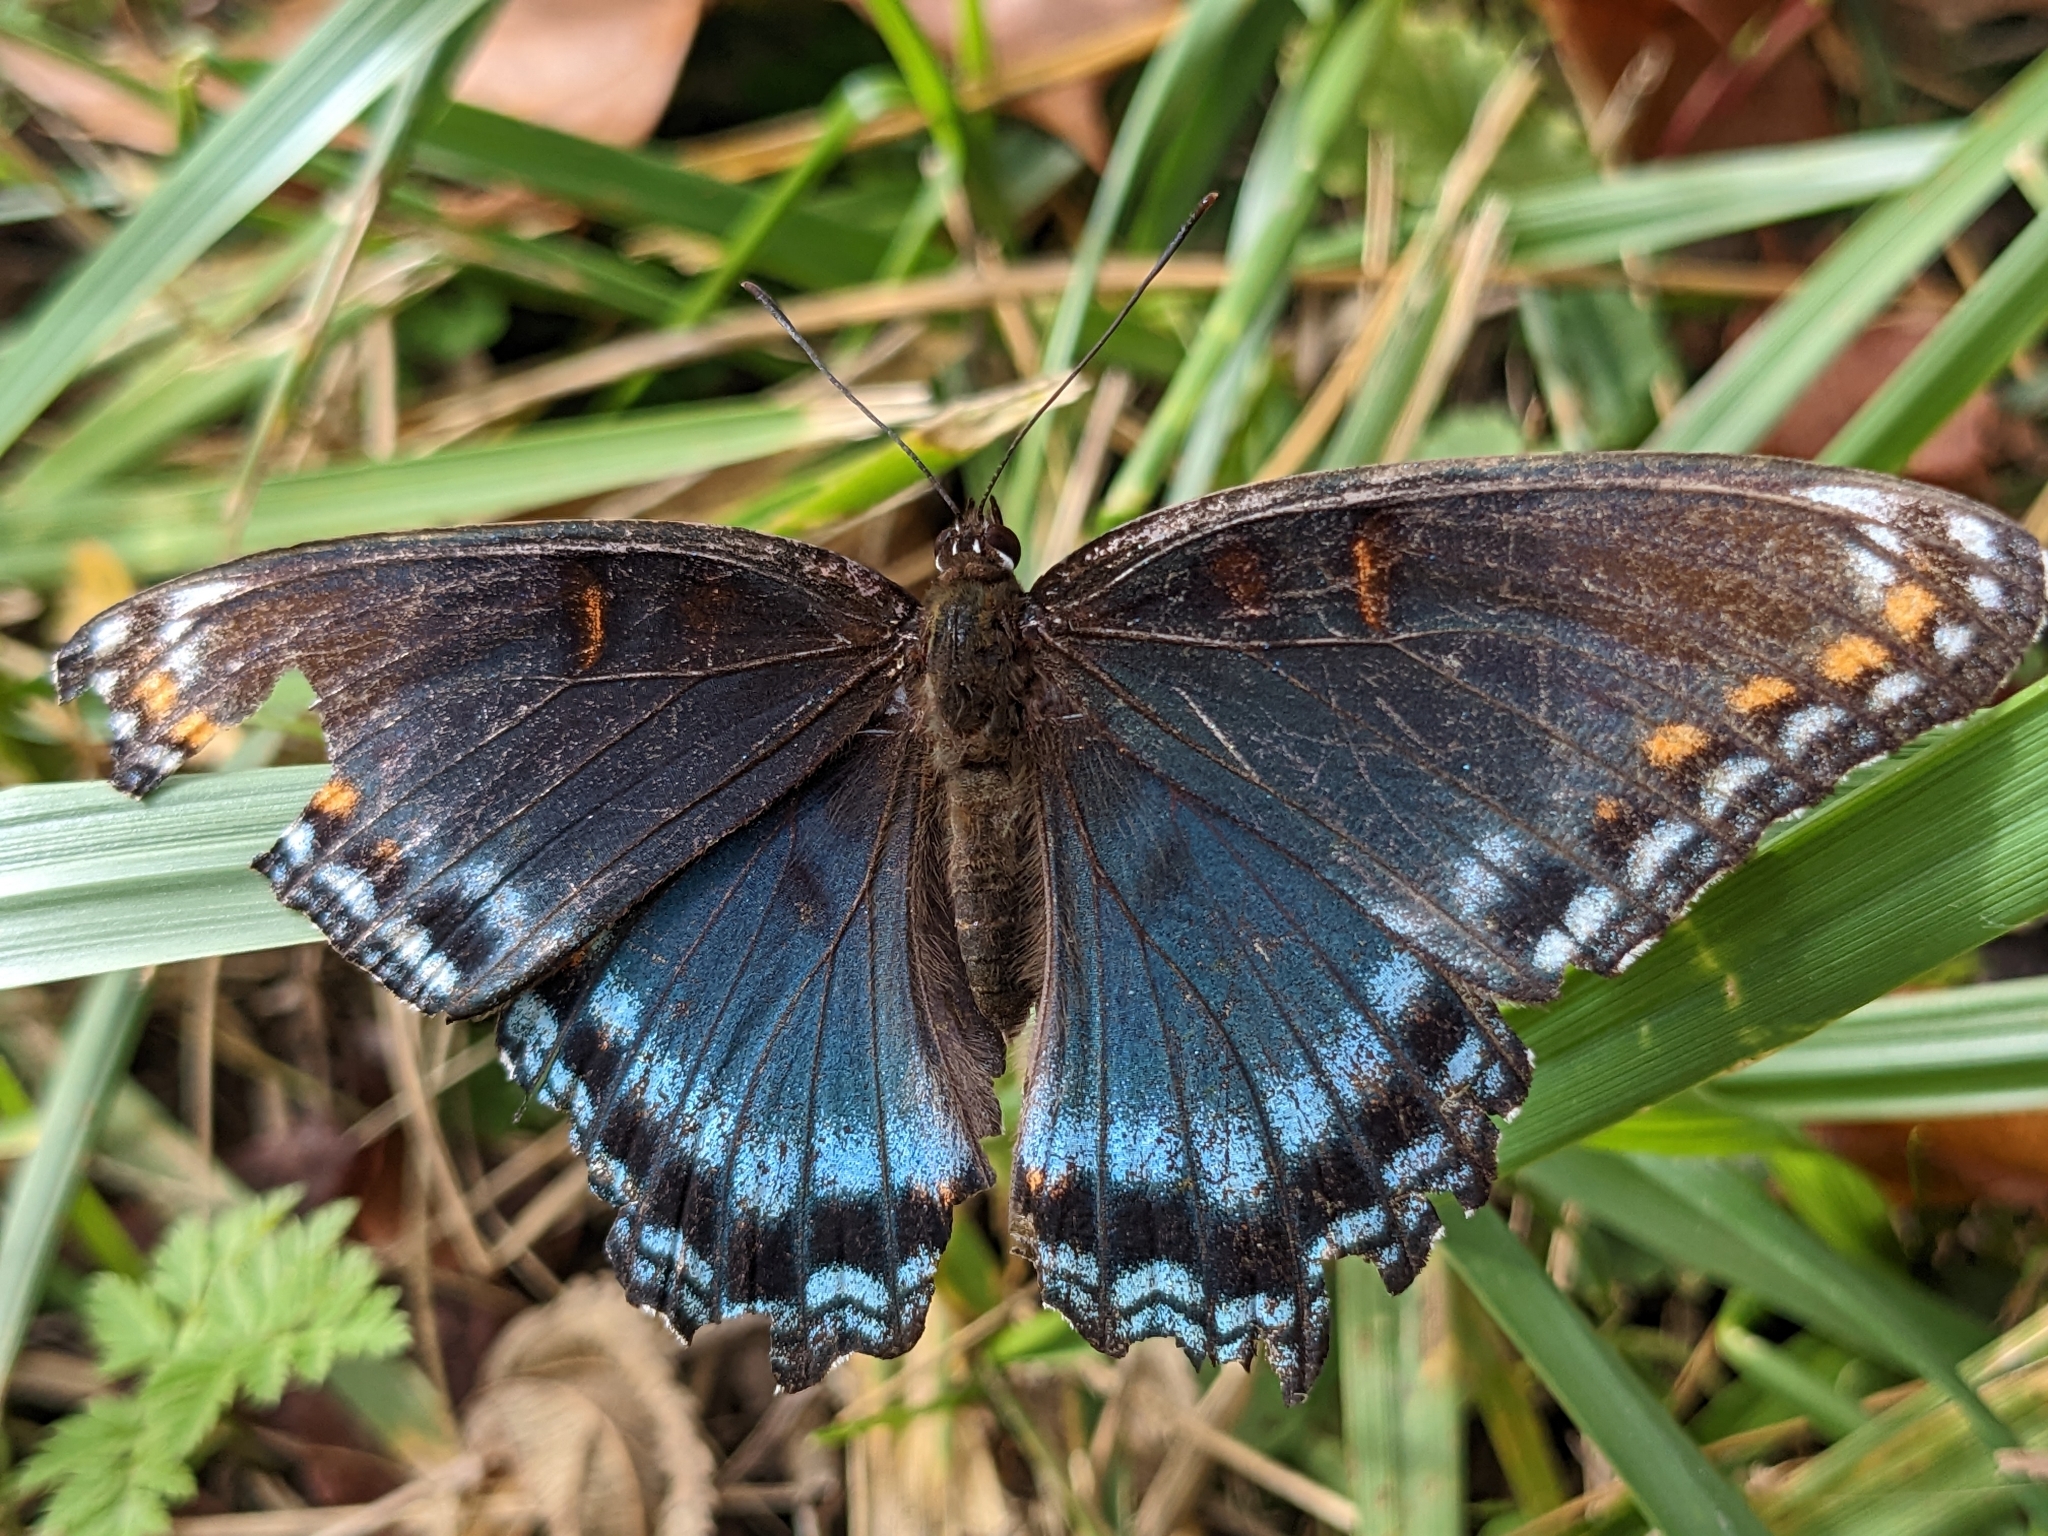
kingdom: Animalia
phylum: Arthropoda
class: Insecta
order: Lepidoptera
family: Nymphalidae
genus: Limenitis
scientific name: Limenitis astyanax
